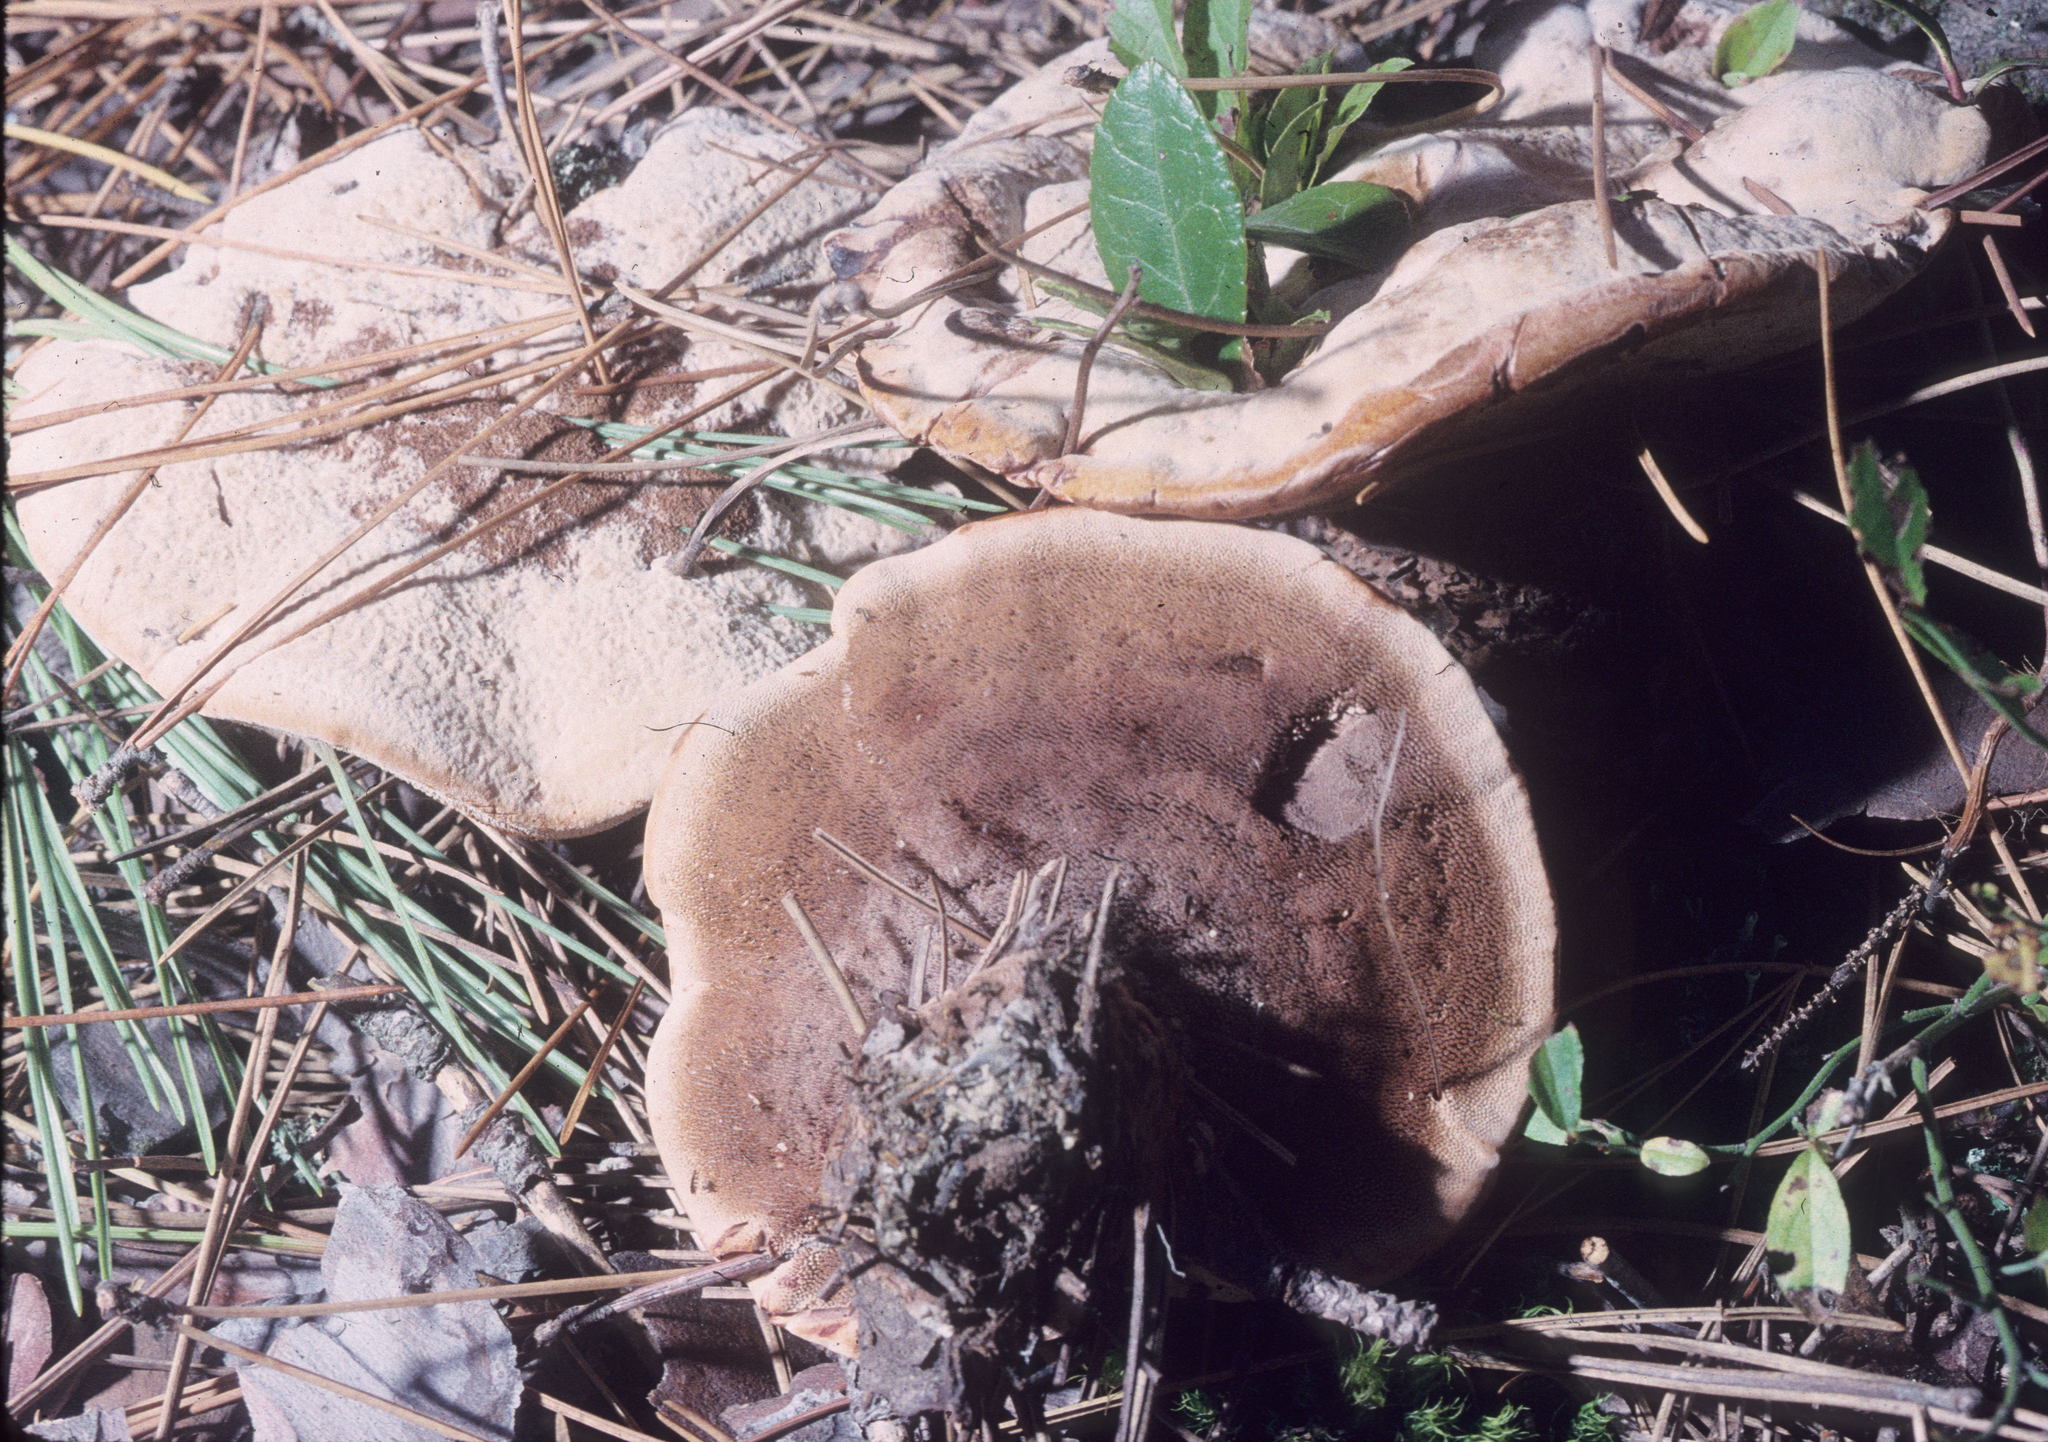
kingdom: Fungi
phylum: Basidiomycota
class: Agaricomycetes
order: Thelephorales
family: Bankeraceae
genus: Hydnellum
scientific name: Hydnellum ferrugineum
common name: Mealy tooth
